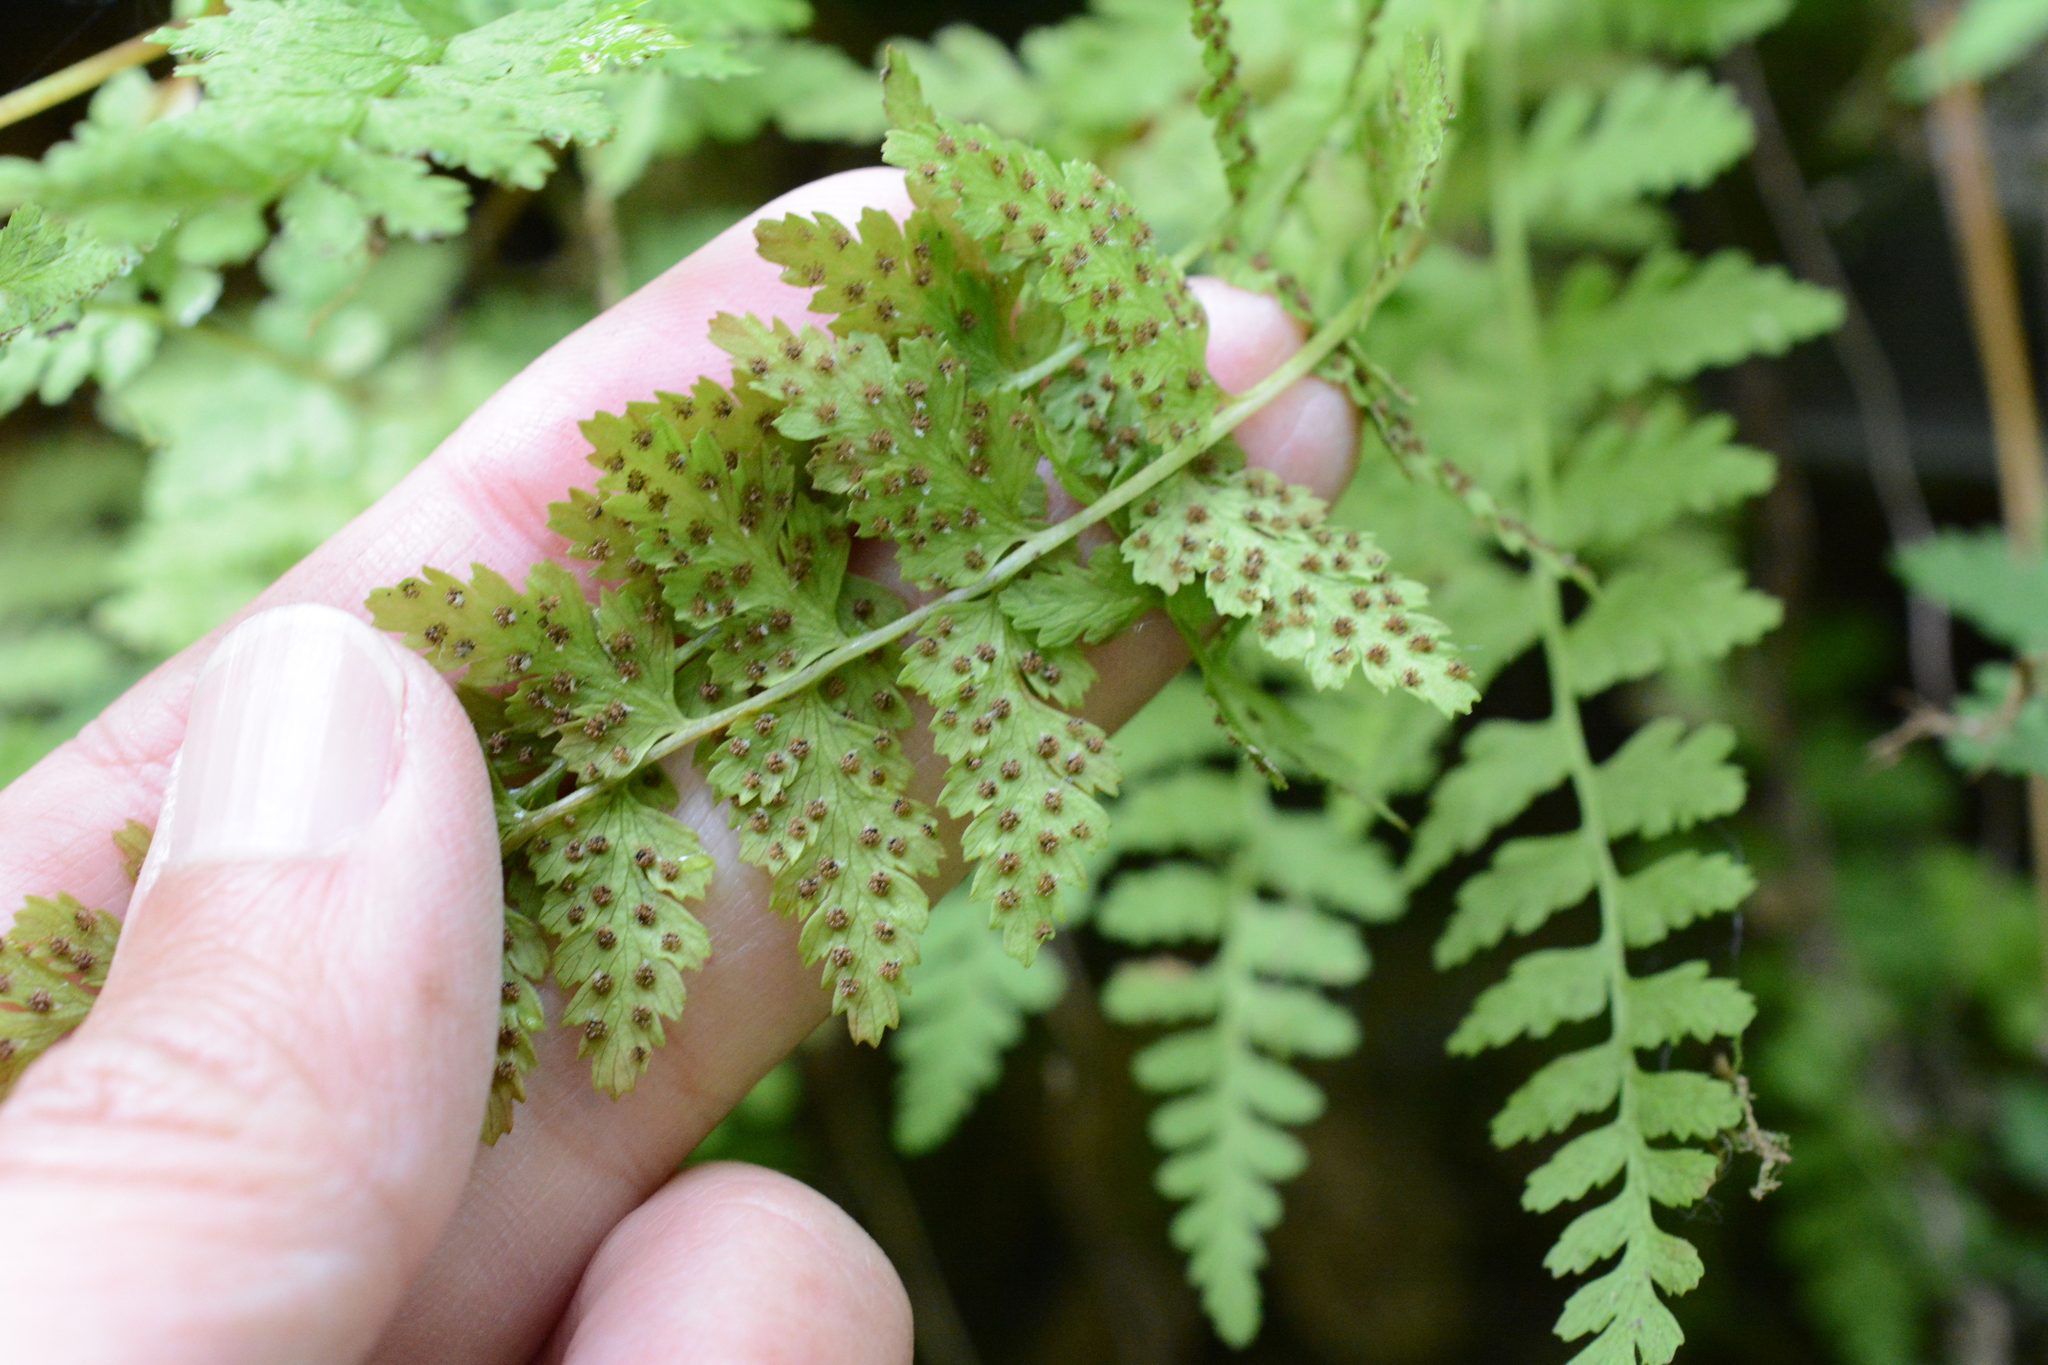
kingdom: Plantae
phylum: Tracheophyta
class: Polypodiopsida
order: Polypodiales
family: Cystopteridaceae
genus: Cystopteris
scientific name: Cystopteris fragilis
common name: Brittle bladder fern
